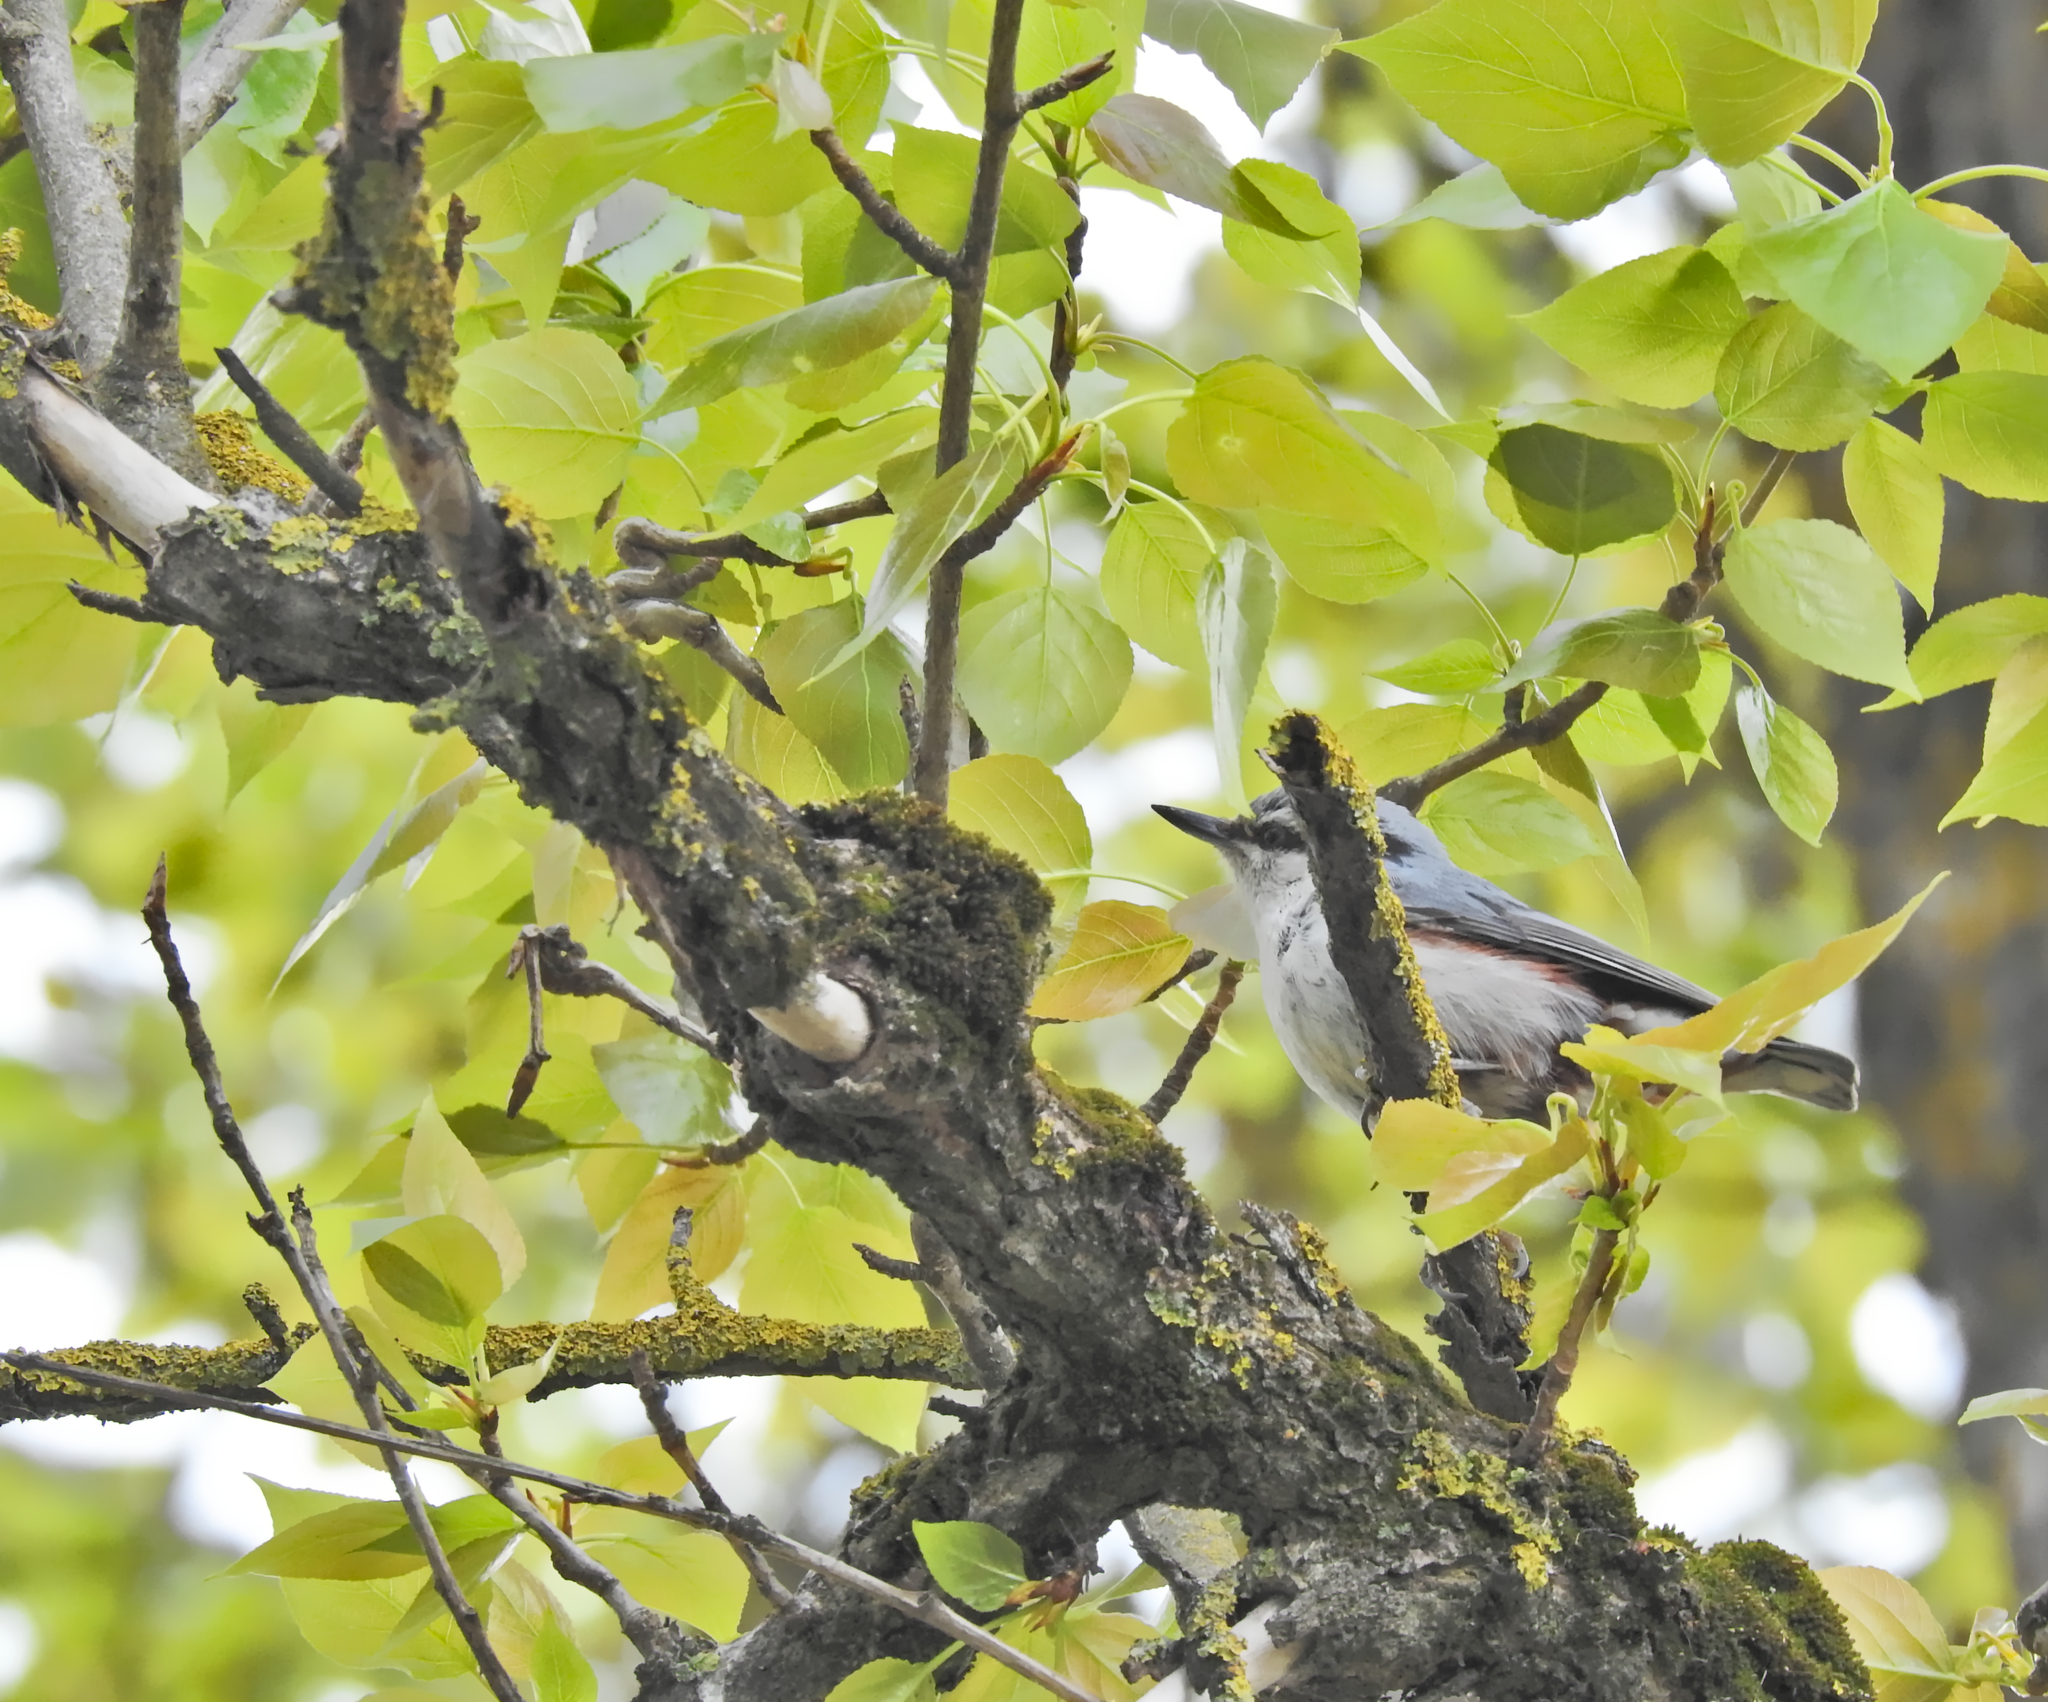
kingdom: Animalia
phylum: Chordata
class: Aves
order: Passeriformes
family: Sittidae
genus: Sitta
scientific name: Sitta europaea
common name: Eurasian nuthatch
